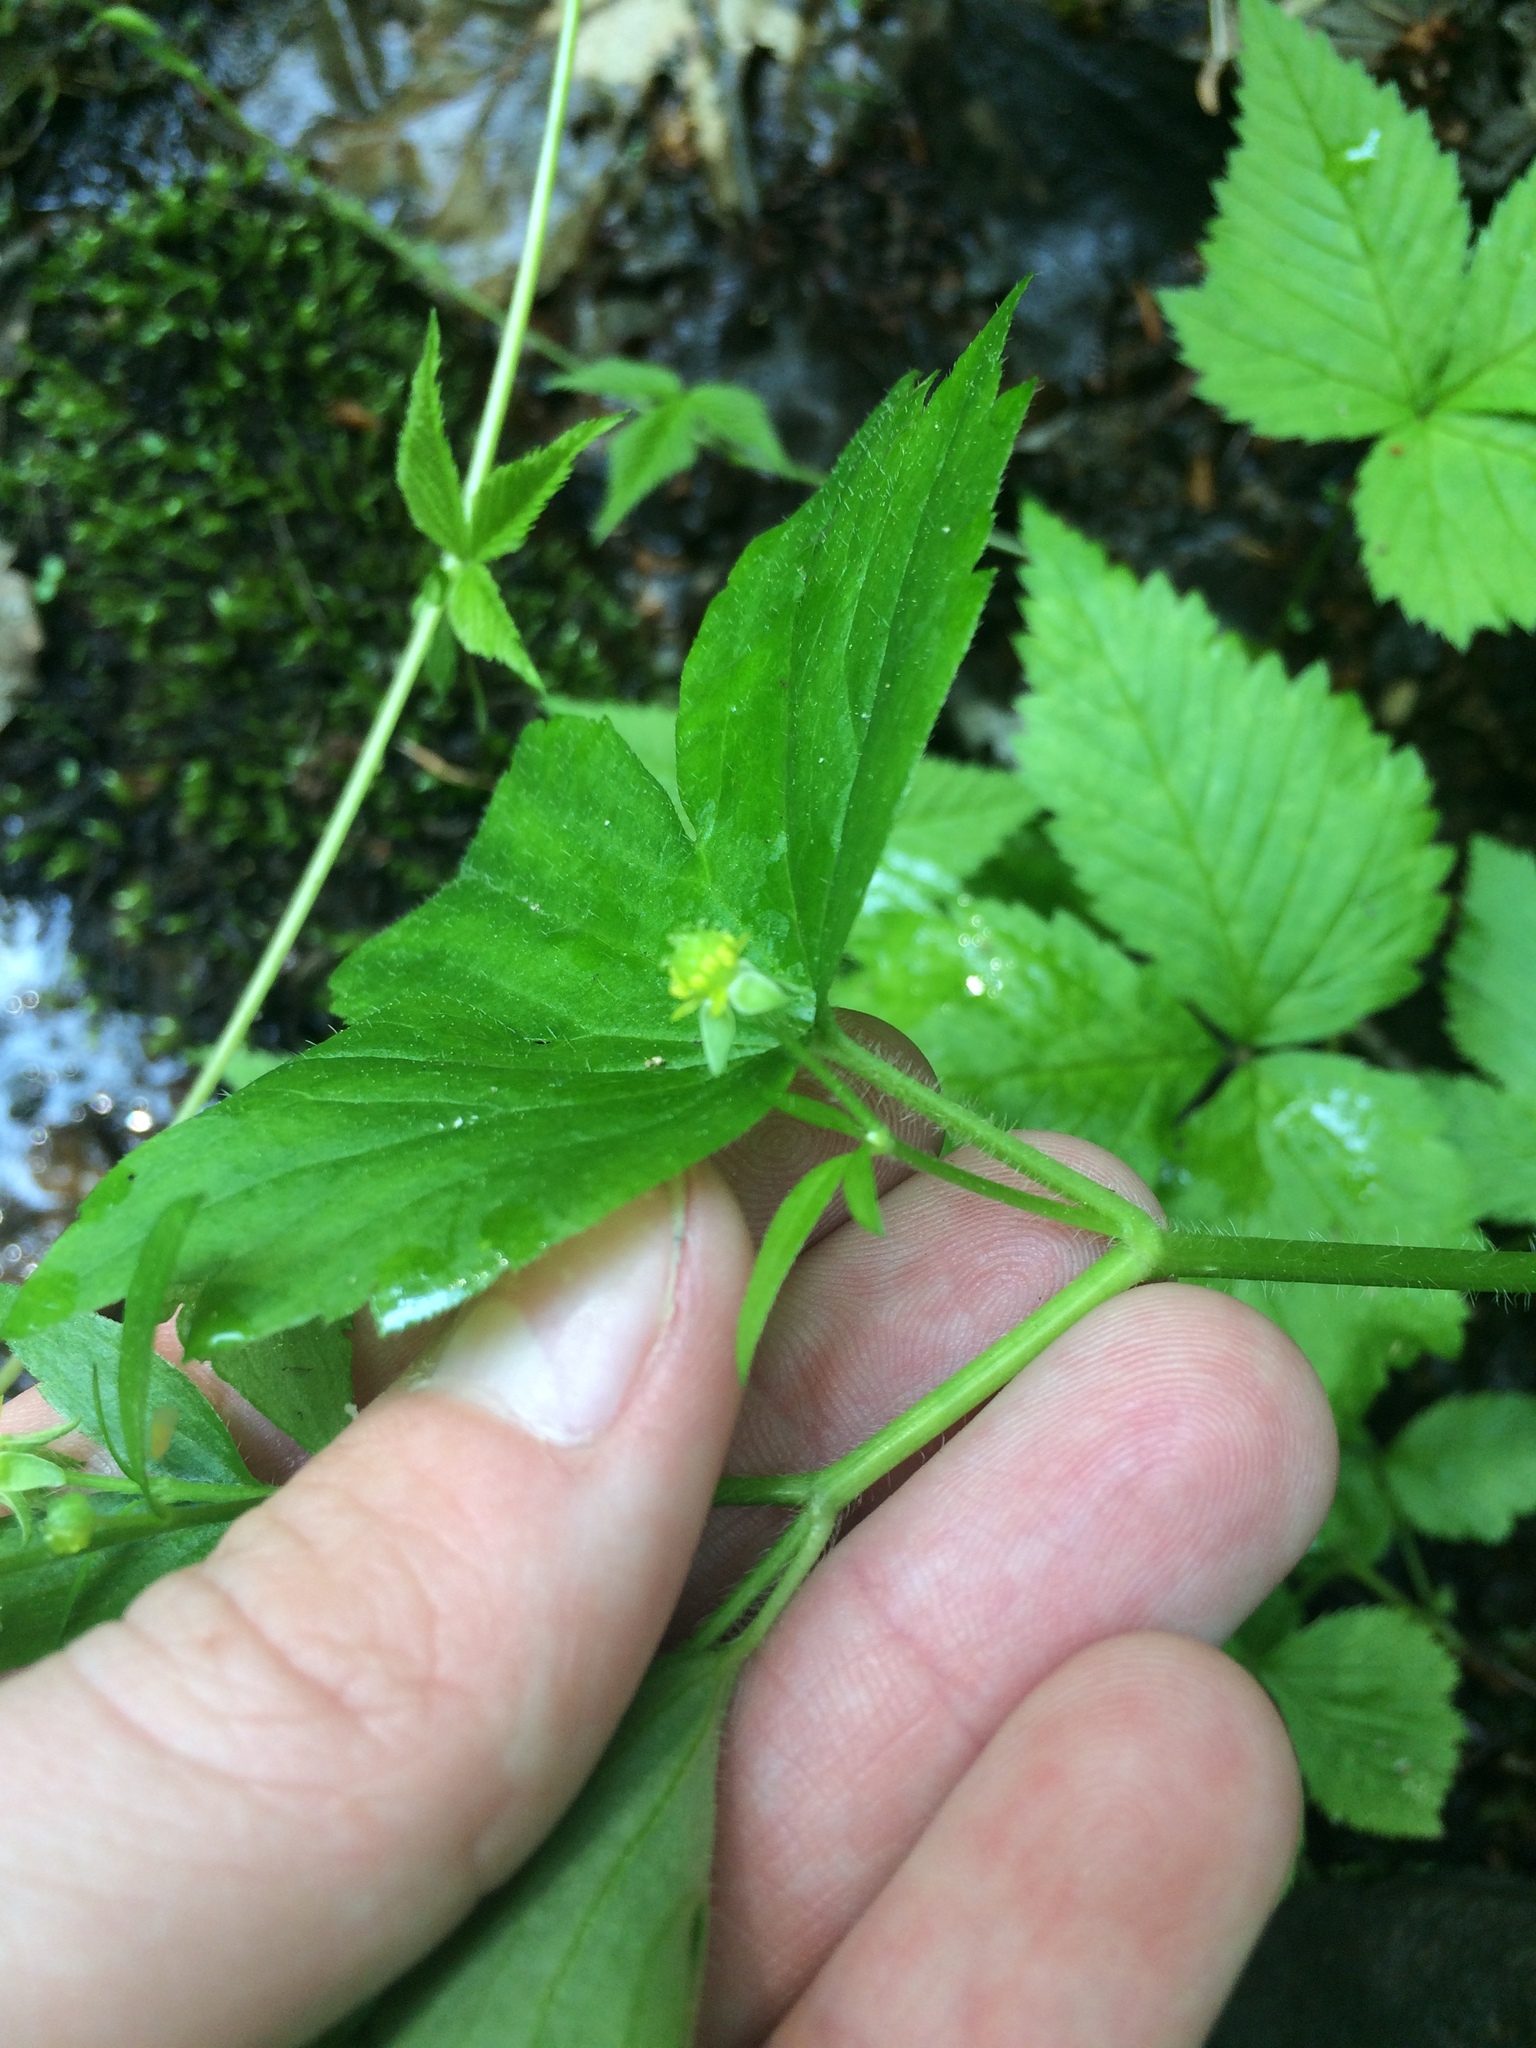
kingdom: Plantae
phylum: Tracheophyta
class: Magnoliopsida
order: Ranunculales
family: Ranunculaceae
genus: Ranunculus
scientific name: Ranunculus recurvatus
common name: Blisterwort
